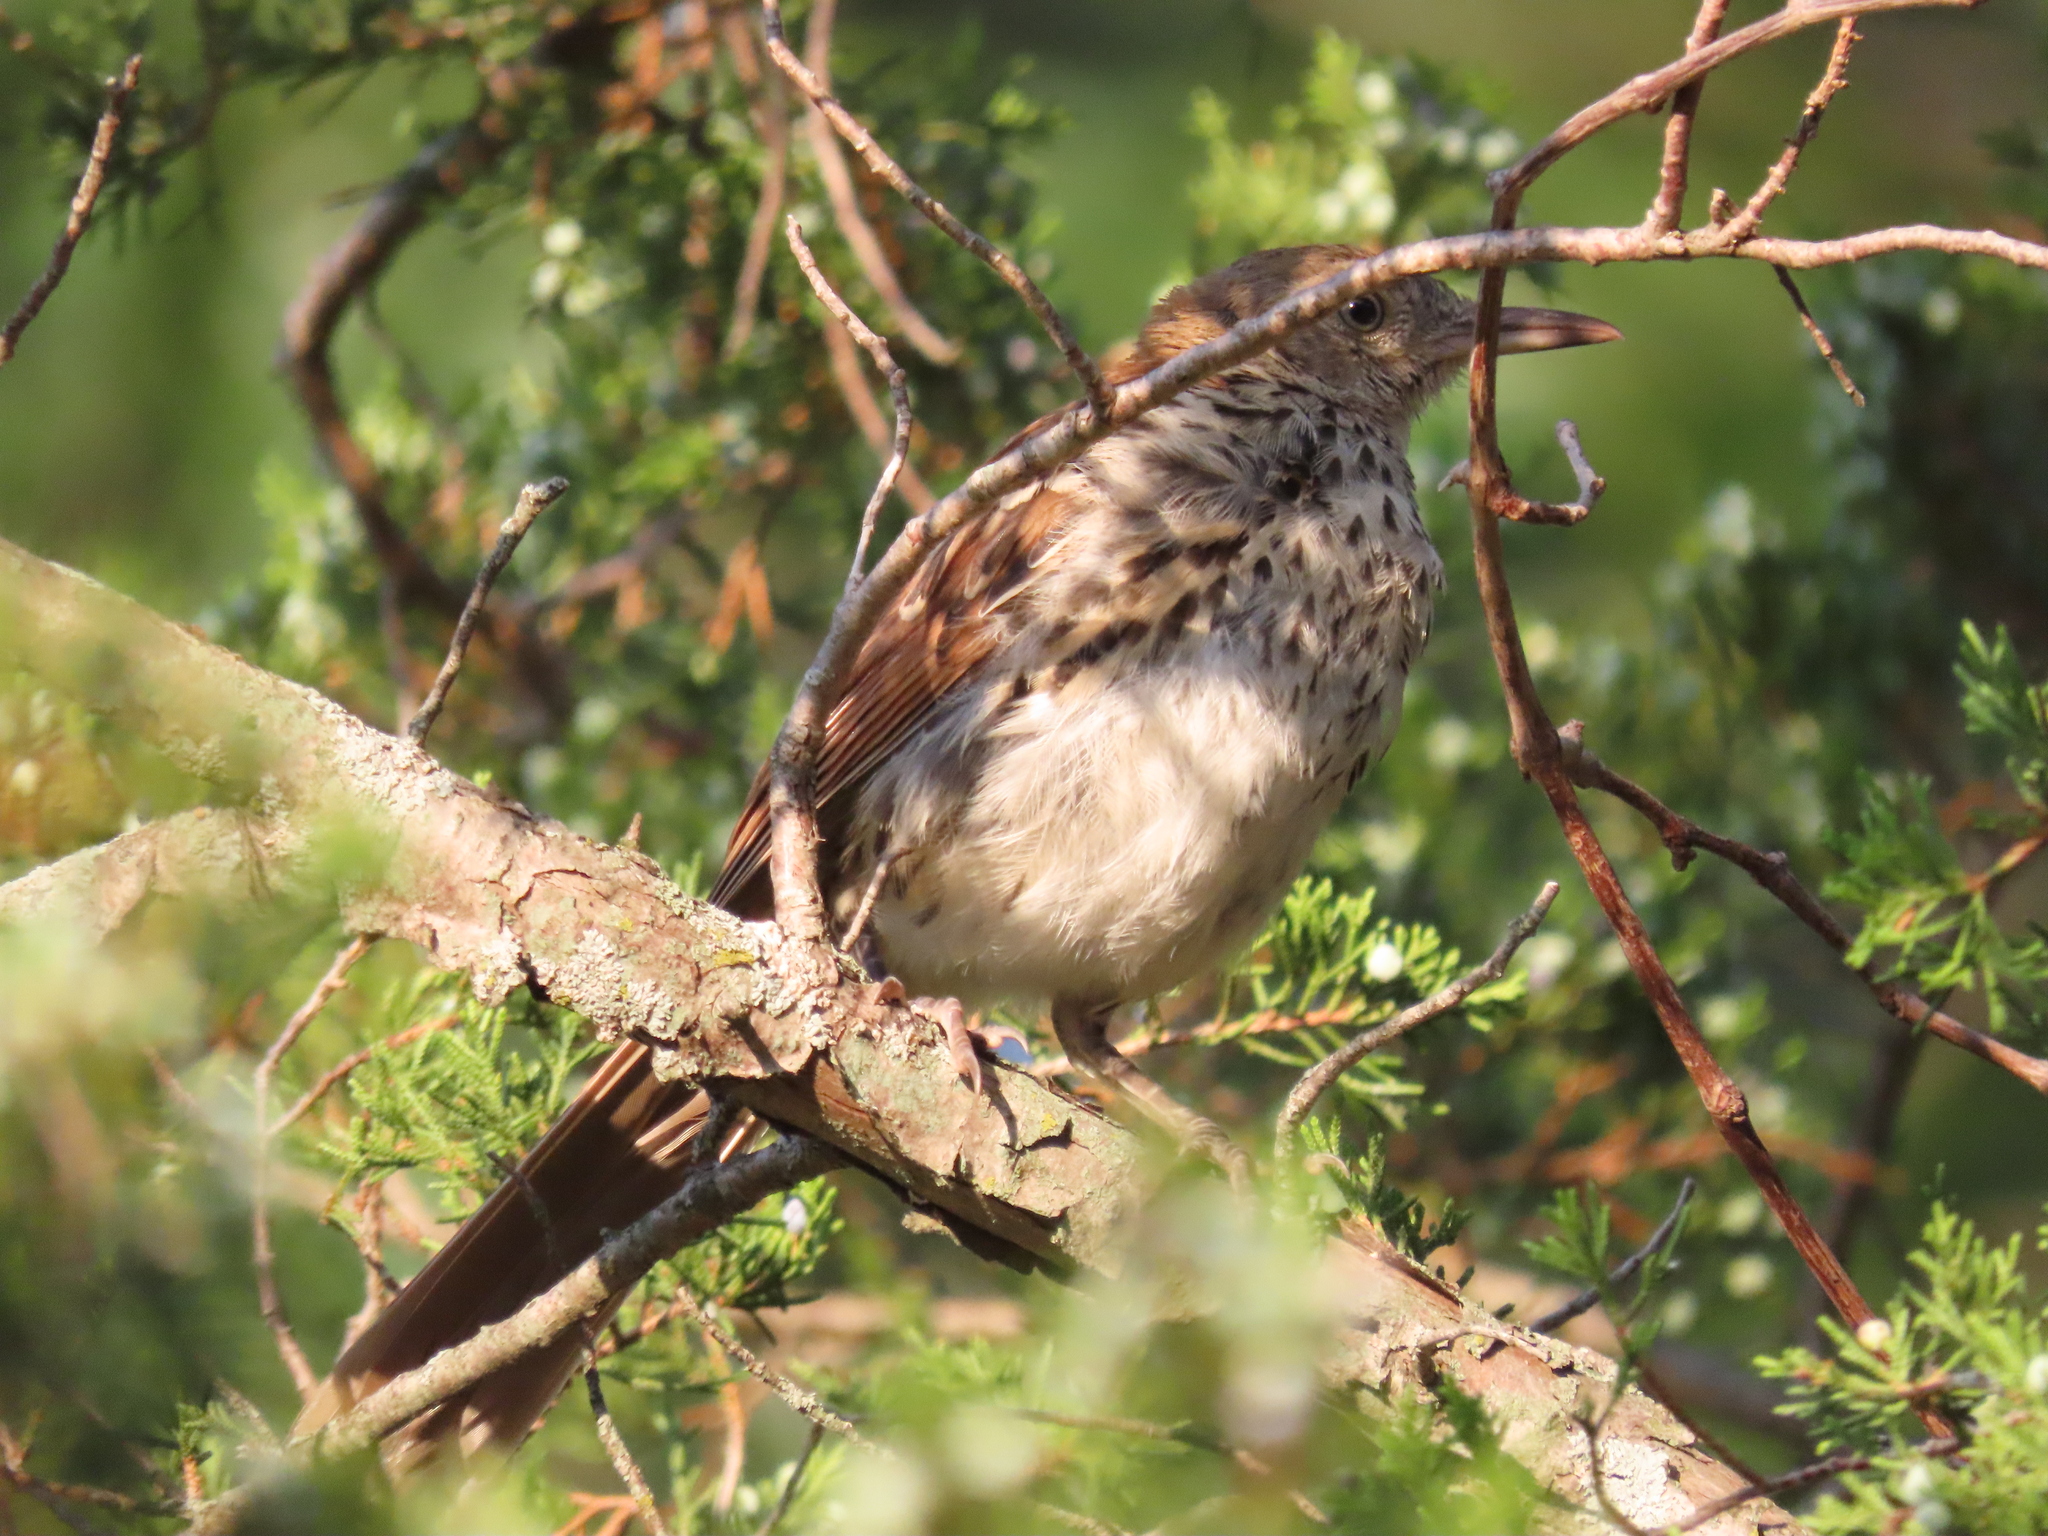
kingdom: Animalia
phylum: Chordata
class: Aves
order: Passeriformes
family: Mimidae
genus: Toxostoma
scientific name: Toxostoma rufum
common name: Brown thrasher
